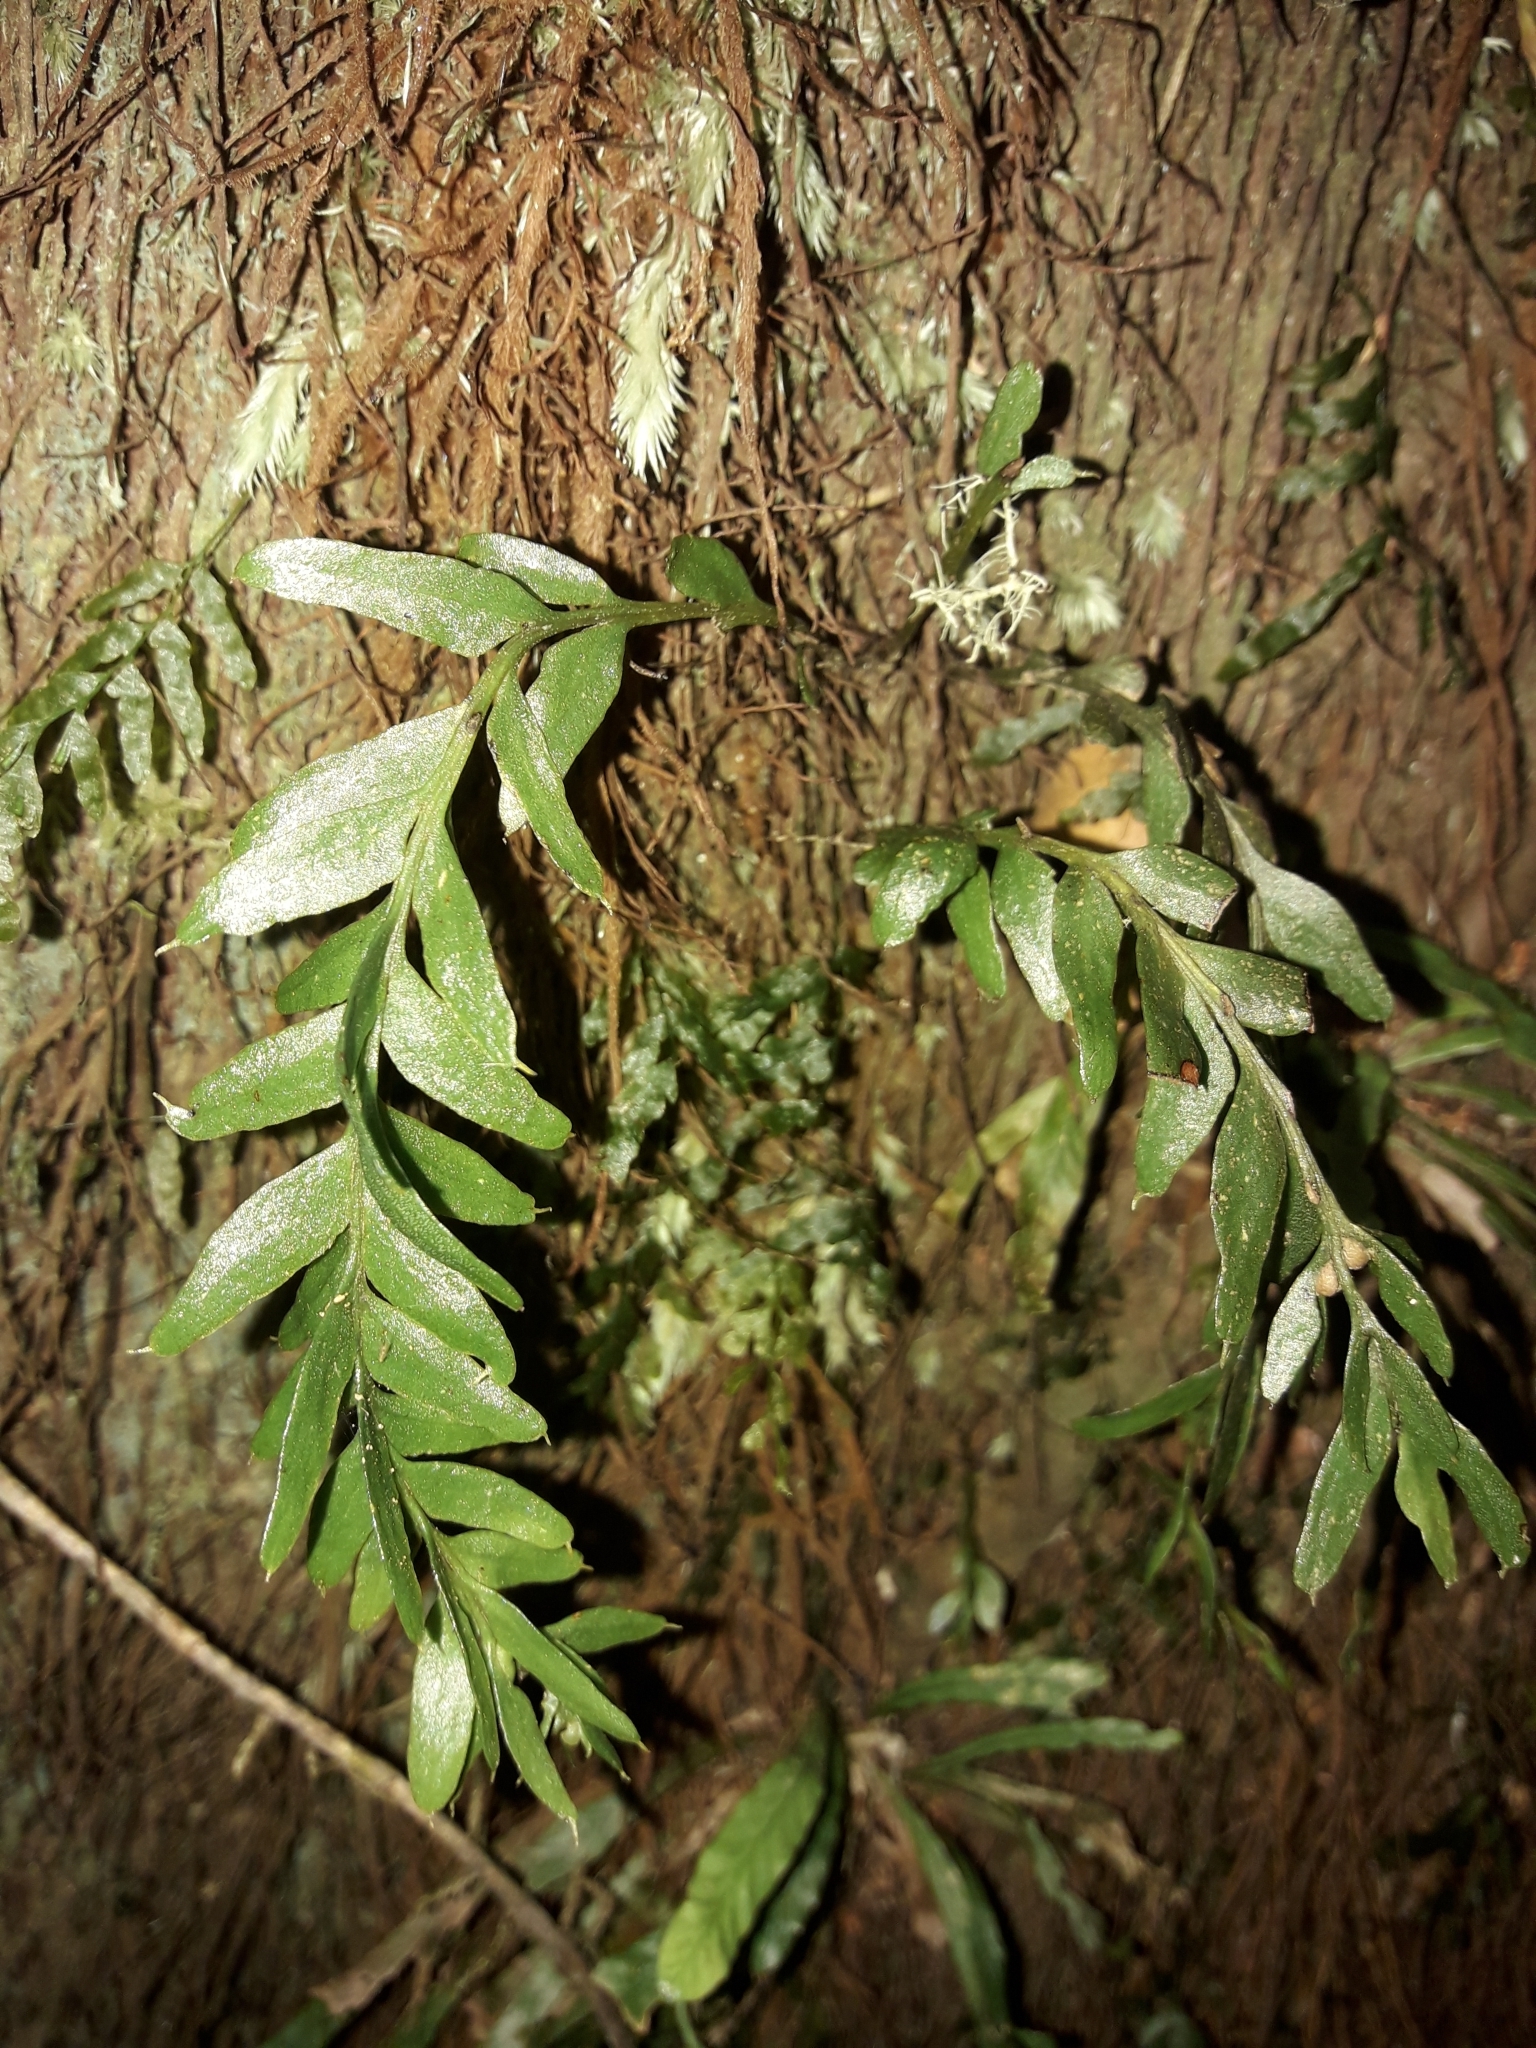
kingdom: Plantae
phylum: Tracheophyta
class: Polypodiopsida
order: Psilotales
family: Psilotaceae
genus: Tmesipteris
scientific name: Tmesipteris ovata
